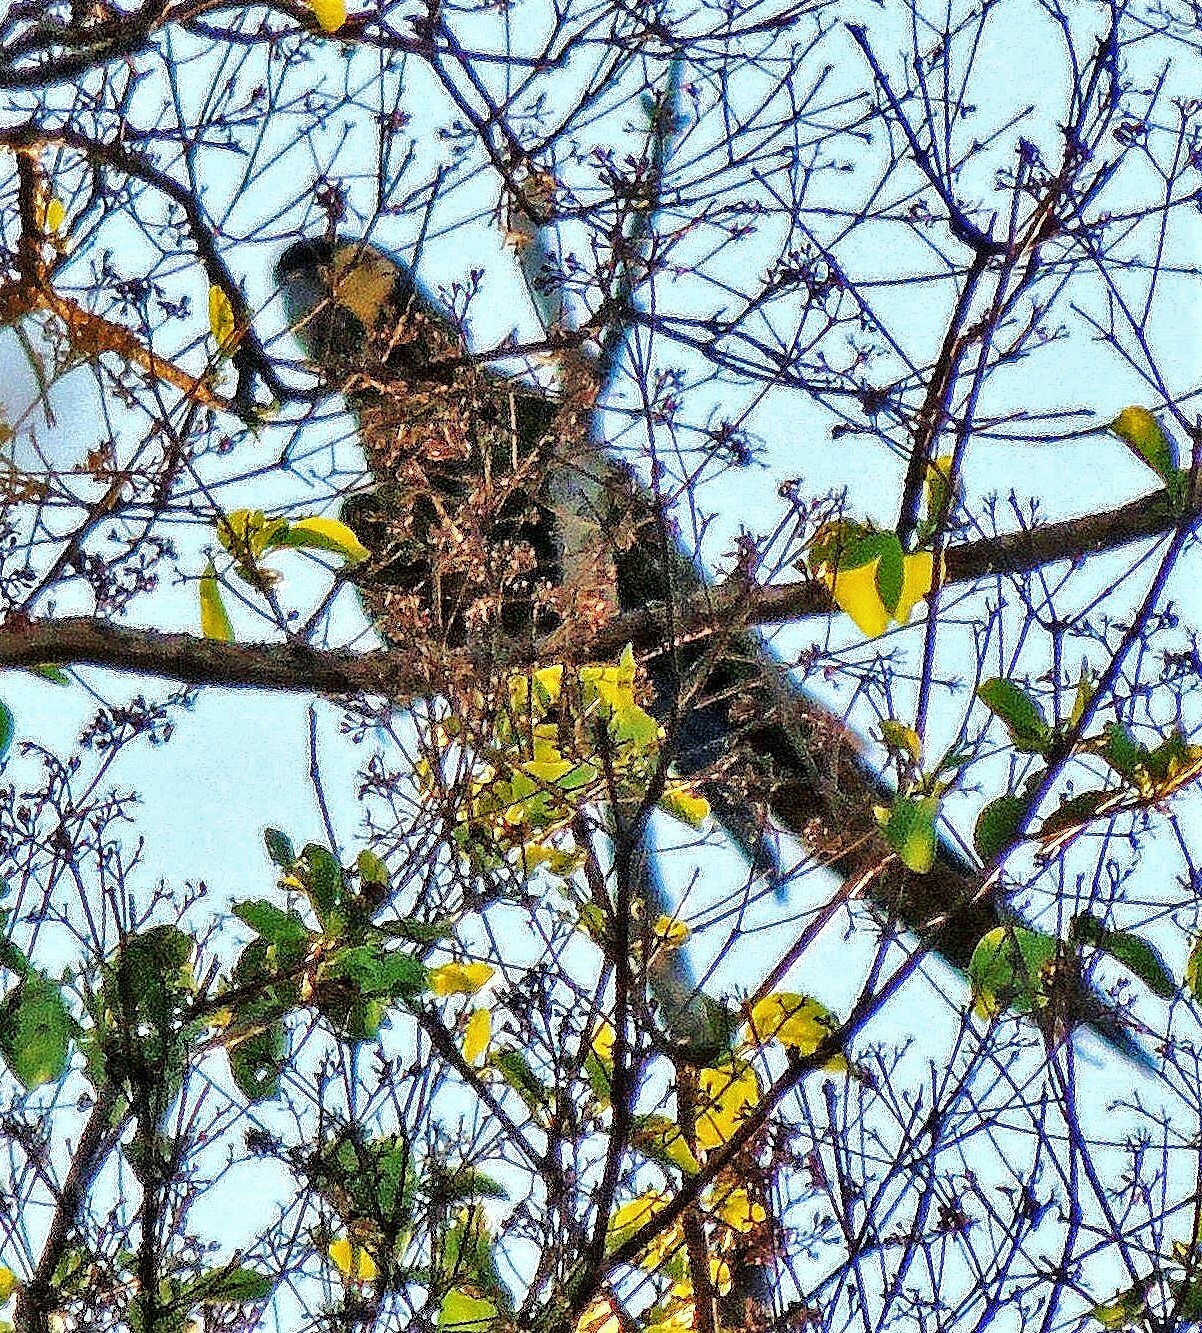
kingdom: Animalia
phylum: Chordata
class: Aves
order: Psittaciformes
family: Psittacidae
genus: Primolius
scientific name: Primolius auricollis
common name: Golden-collared macaw
